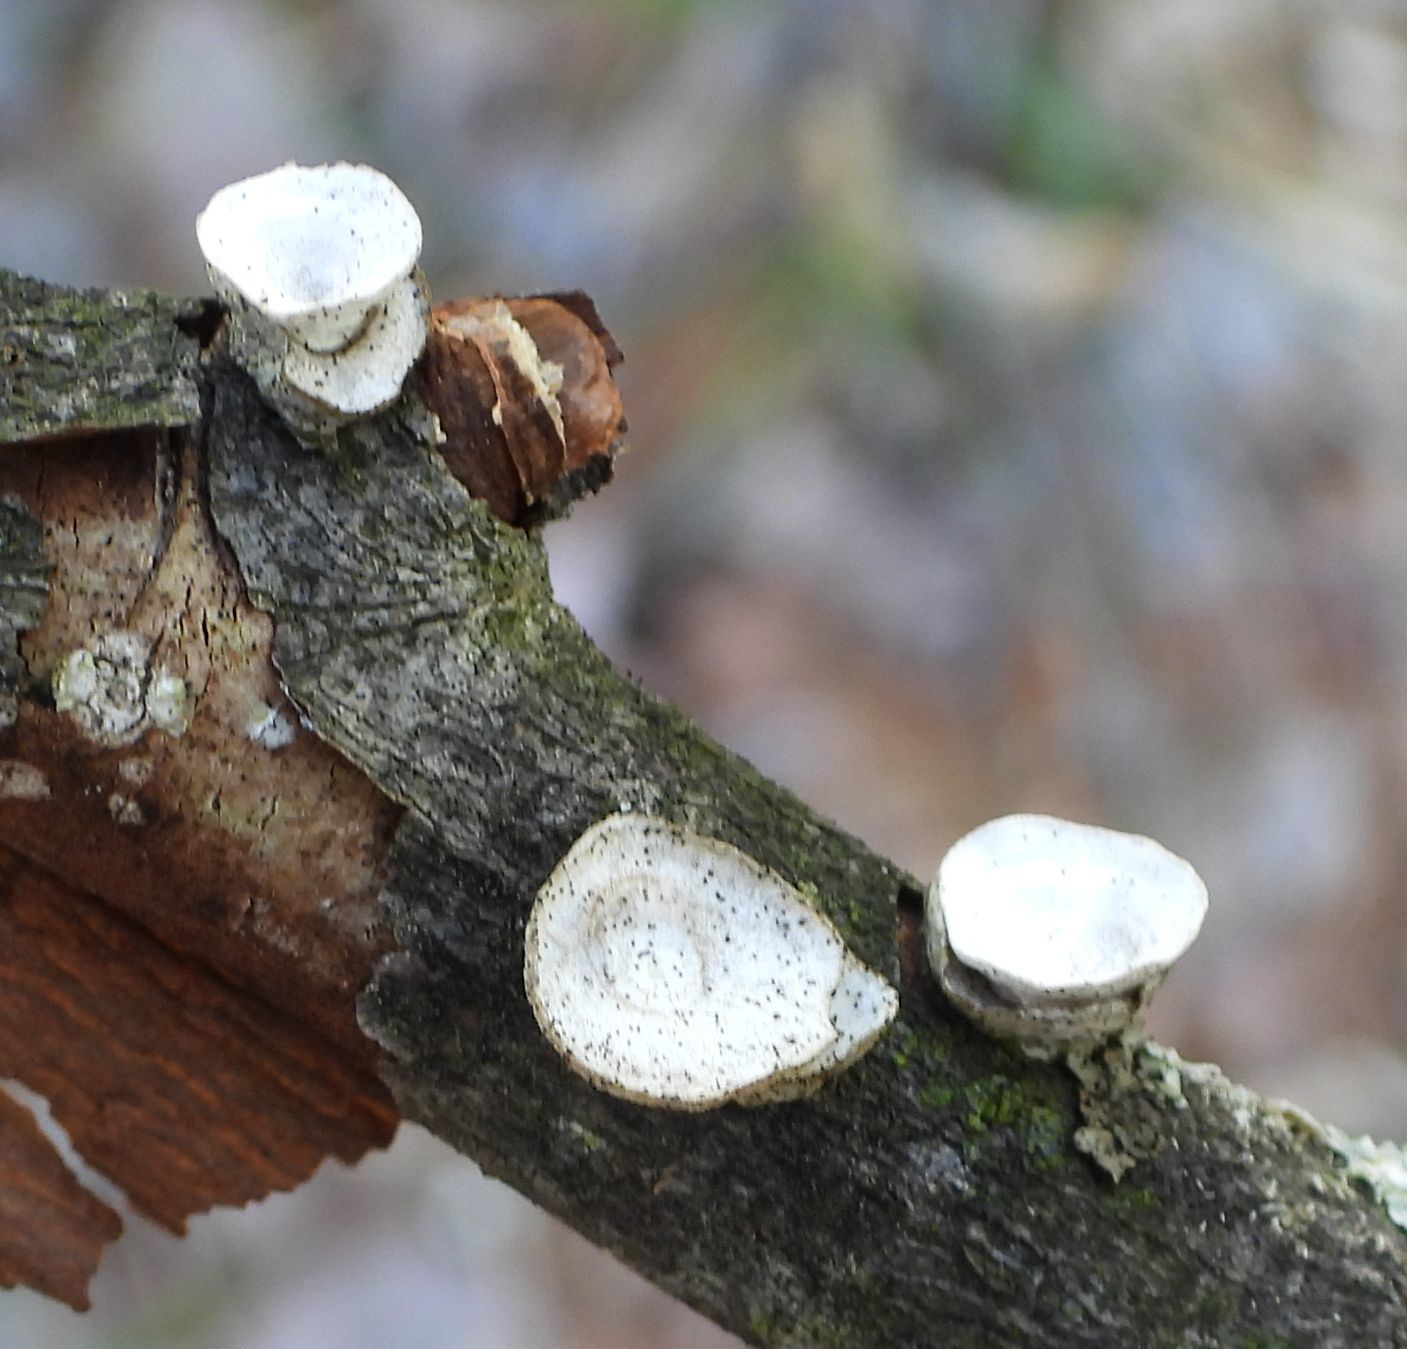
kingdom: Fungi
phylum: Basidiomycota
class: Agaricomycetes
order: Polyporales
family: Polyporaceae
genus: Poronidulus
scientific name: Poronidulus conchifer
